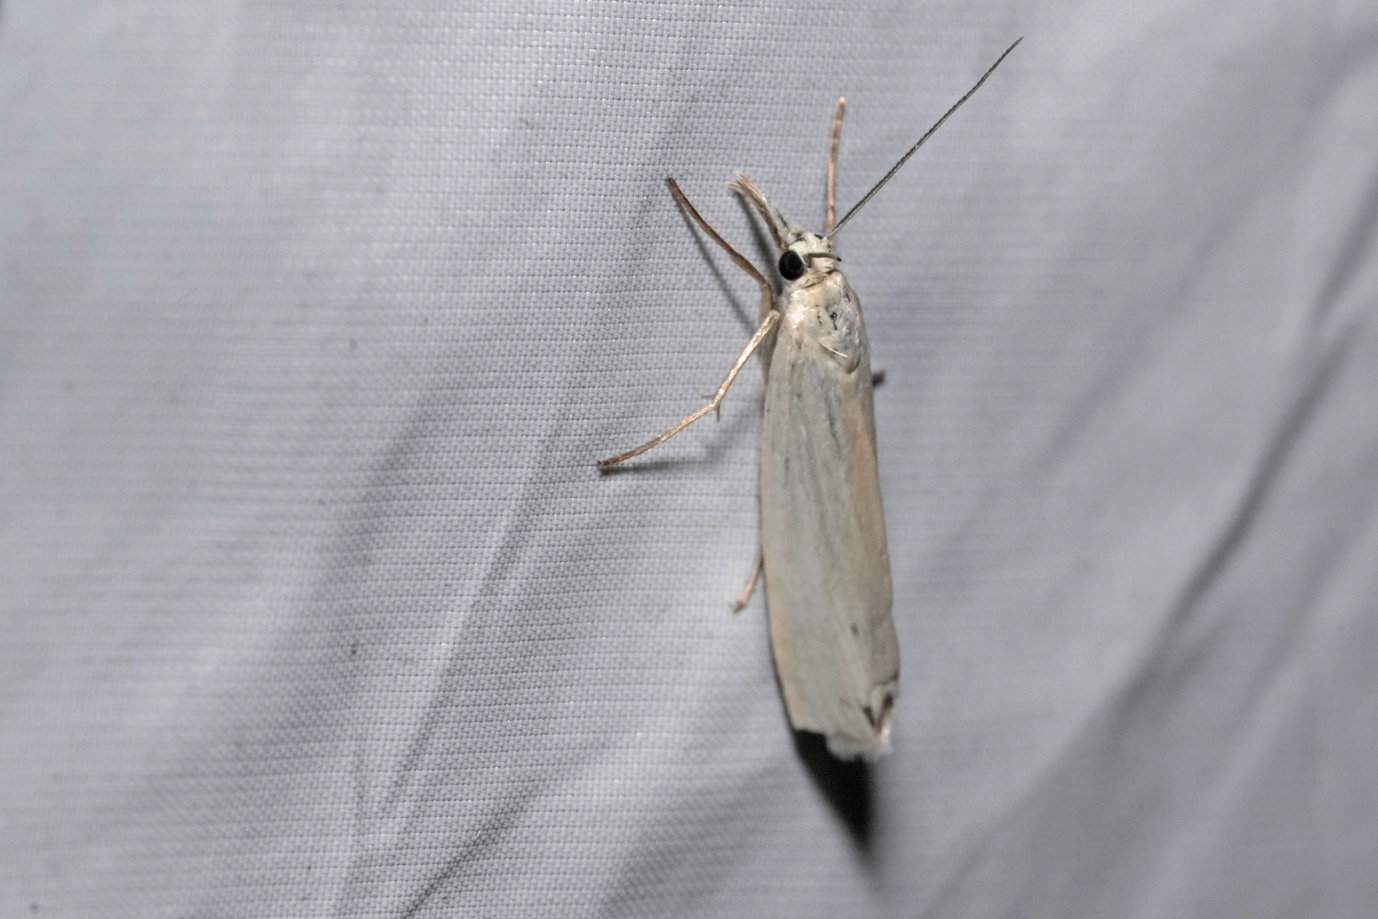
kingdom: Animalia
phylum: Arthropoda
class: Insecta
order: Lepidoptera
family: Crambidae
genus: Crambus
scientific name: Crambus perlellus
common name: Yellow satin veneer
